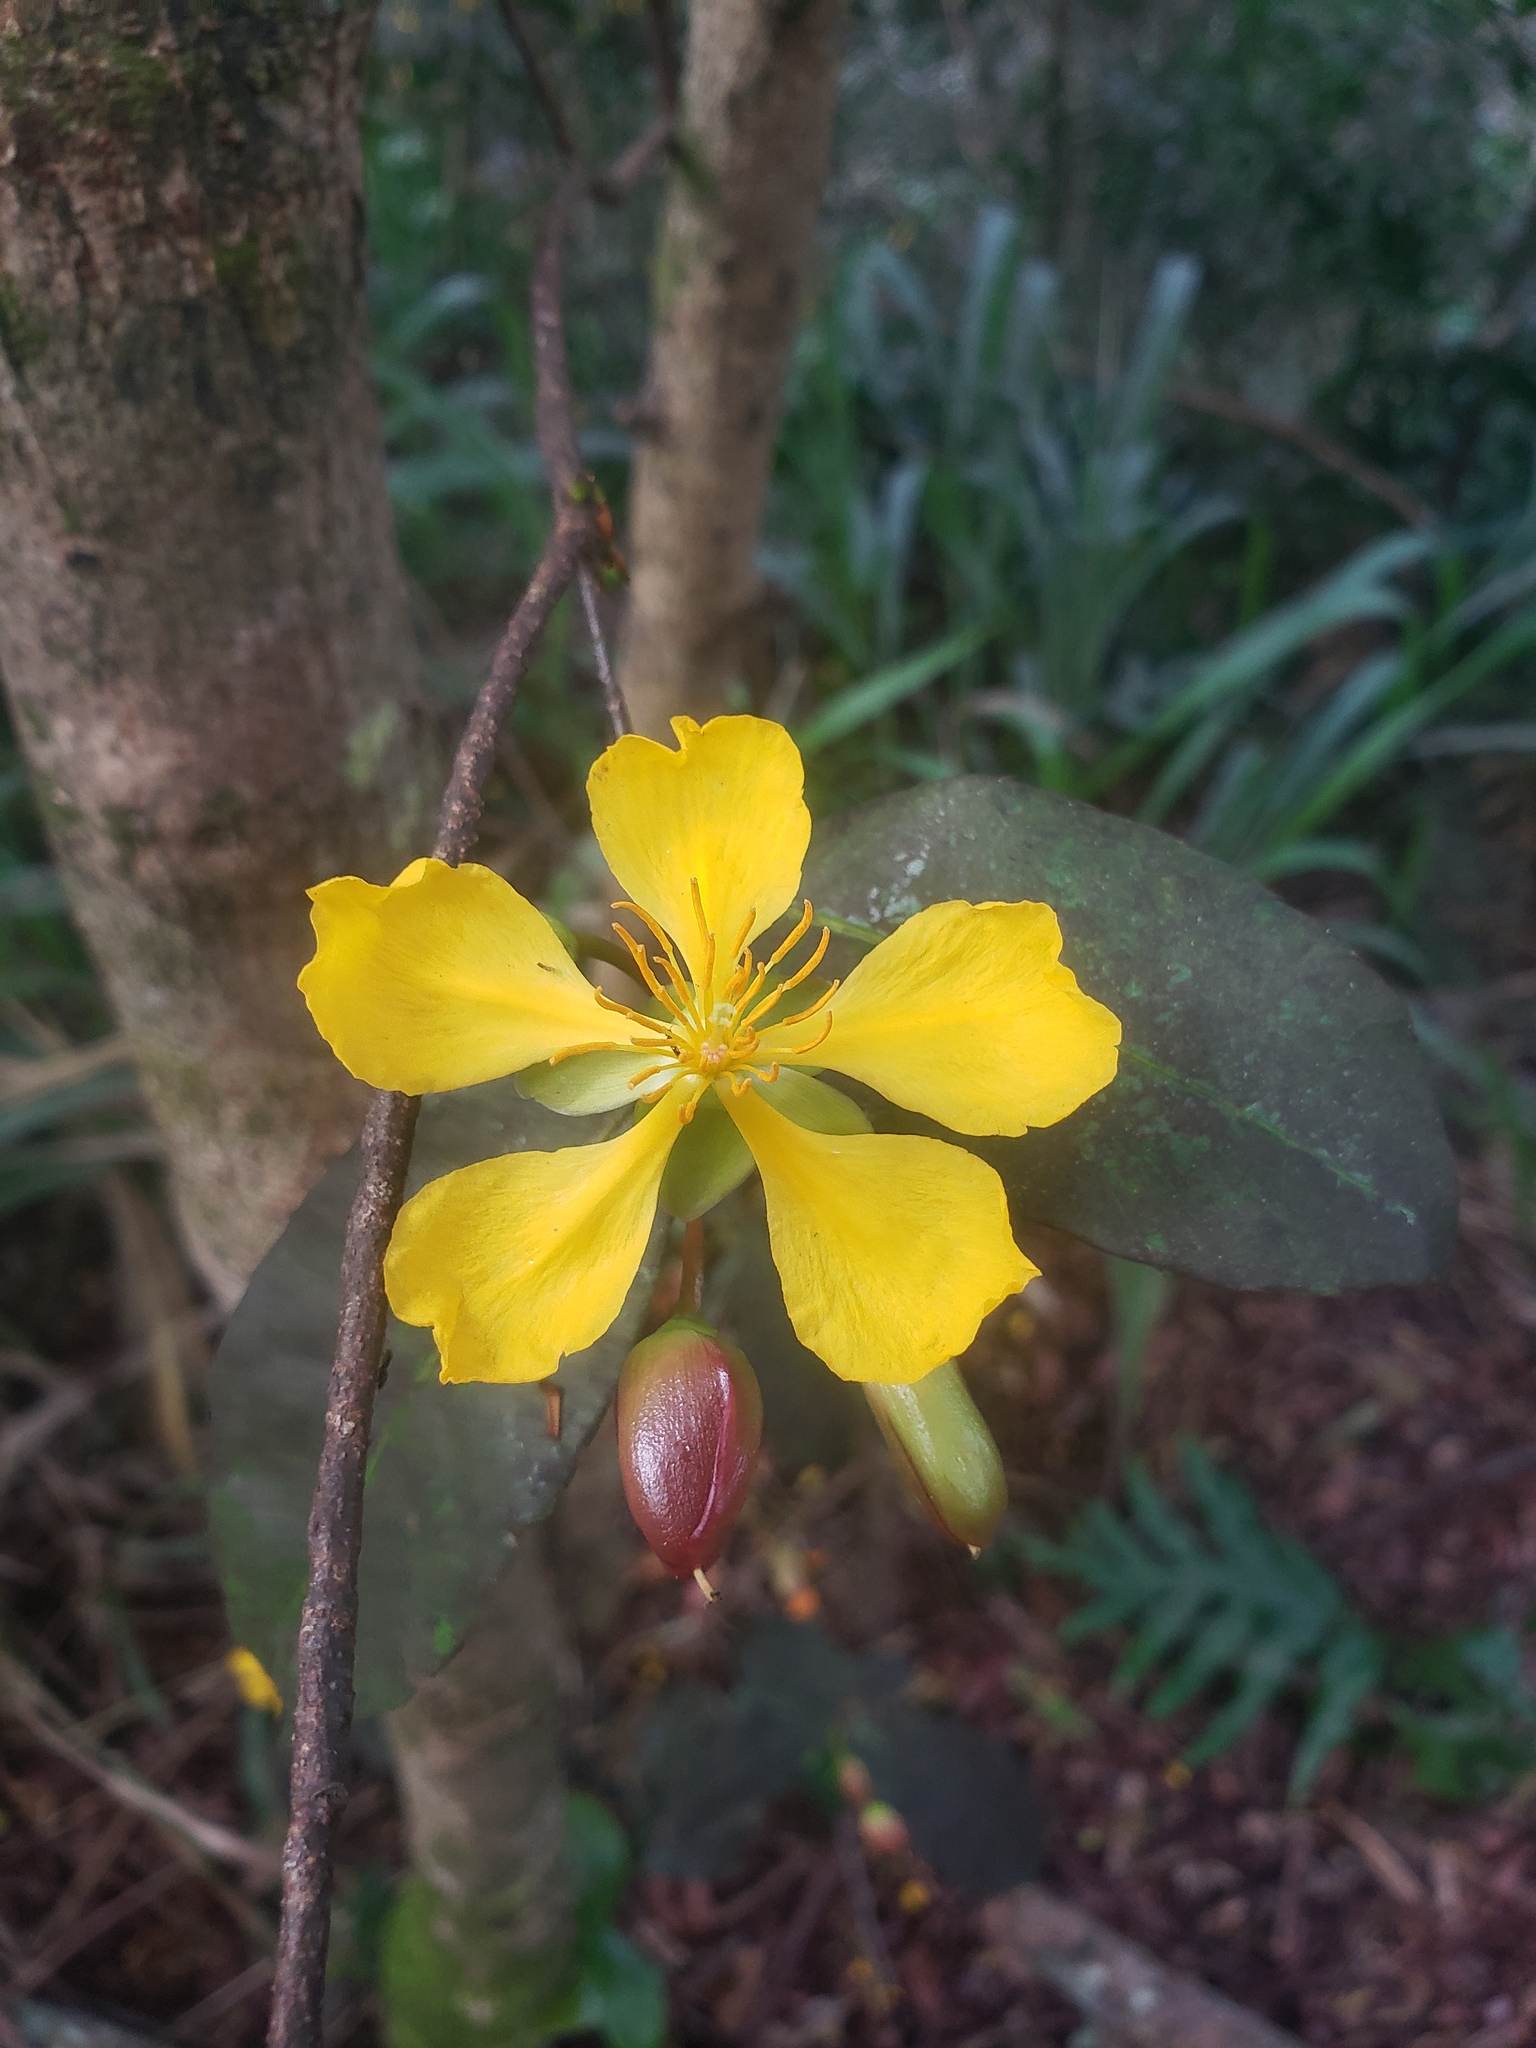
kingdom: Plantae
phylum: Tracheophyta
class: Magnoliopsida
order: Malpighiales
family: Ochnaceae
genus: Ochna
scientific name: Ochna thomasiana
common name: Thomas' bird's-eye bush
